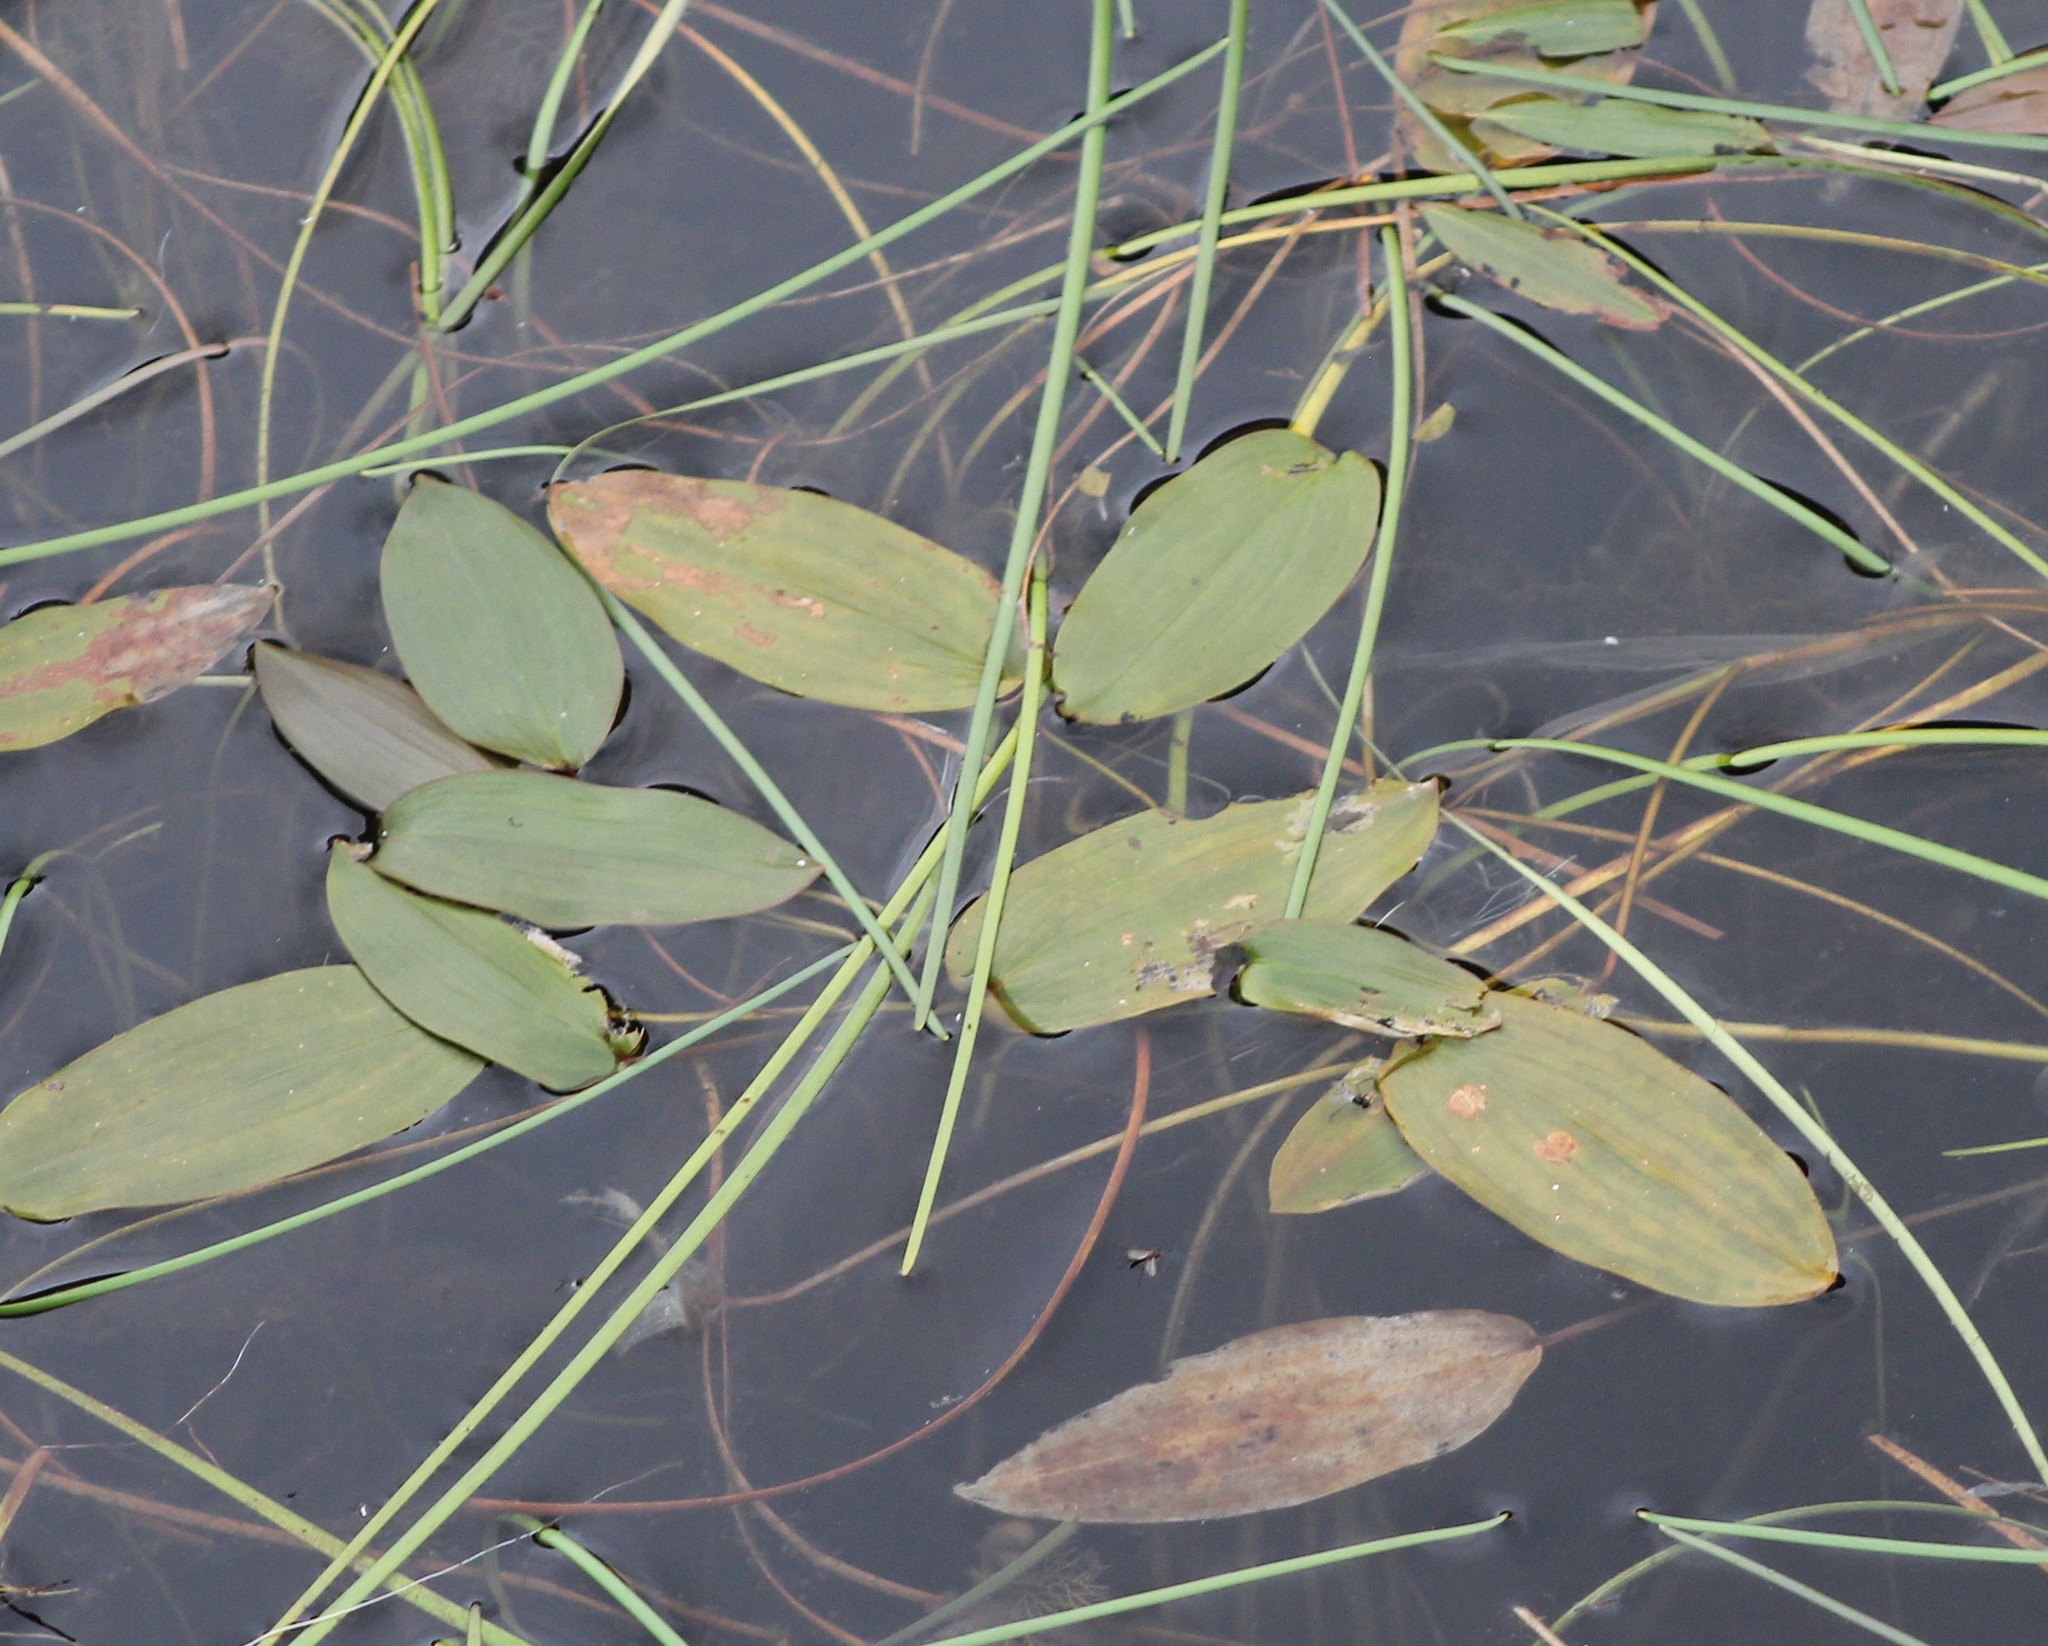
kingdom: Plantae
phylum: Tracheophyta
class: Liliopsida
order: Alismatales
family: Potamogetonaceae
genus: Potamogeton
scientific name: Potamogeton natans
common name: Broad-leaved pondweed
